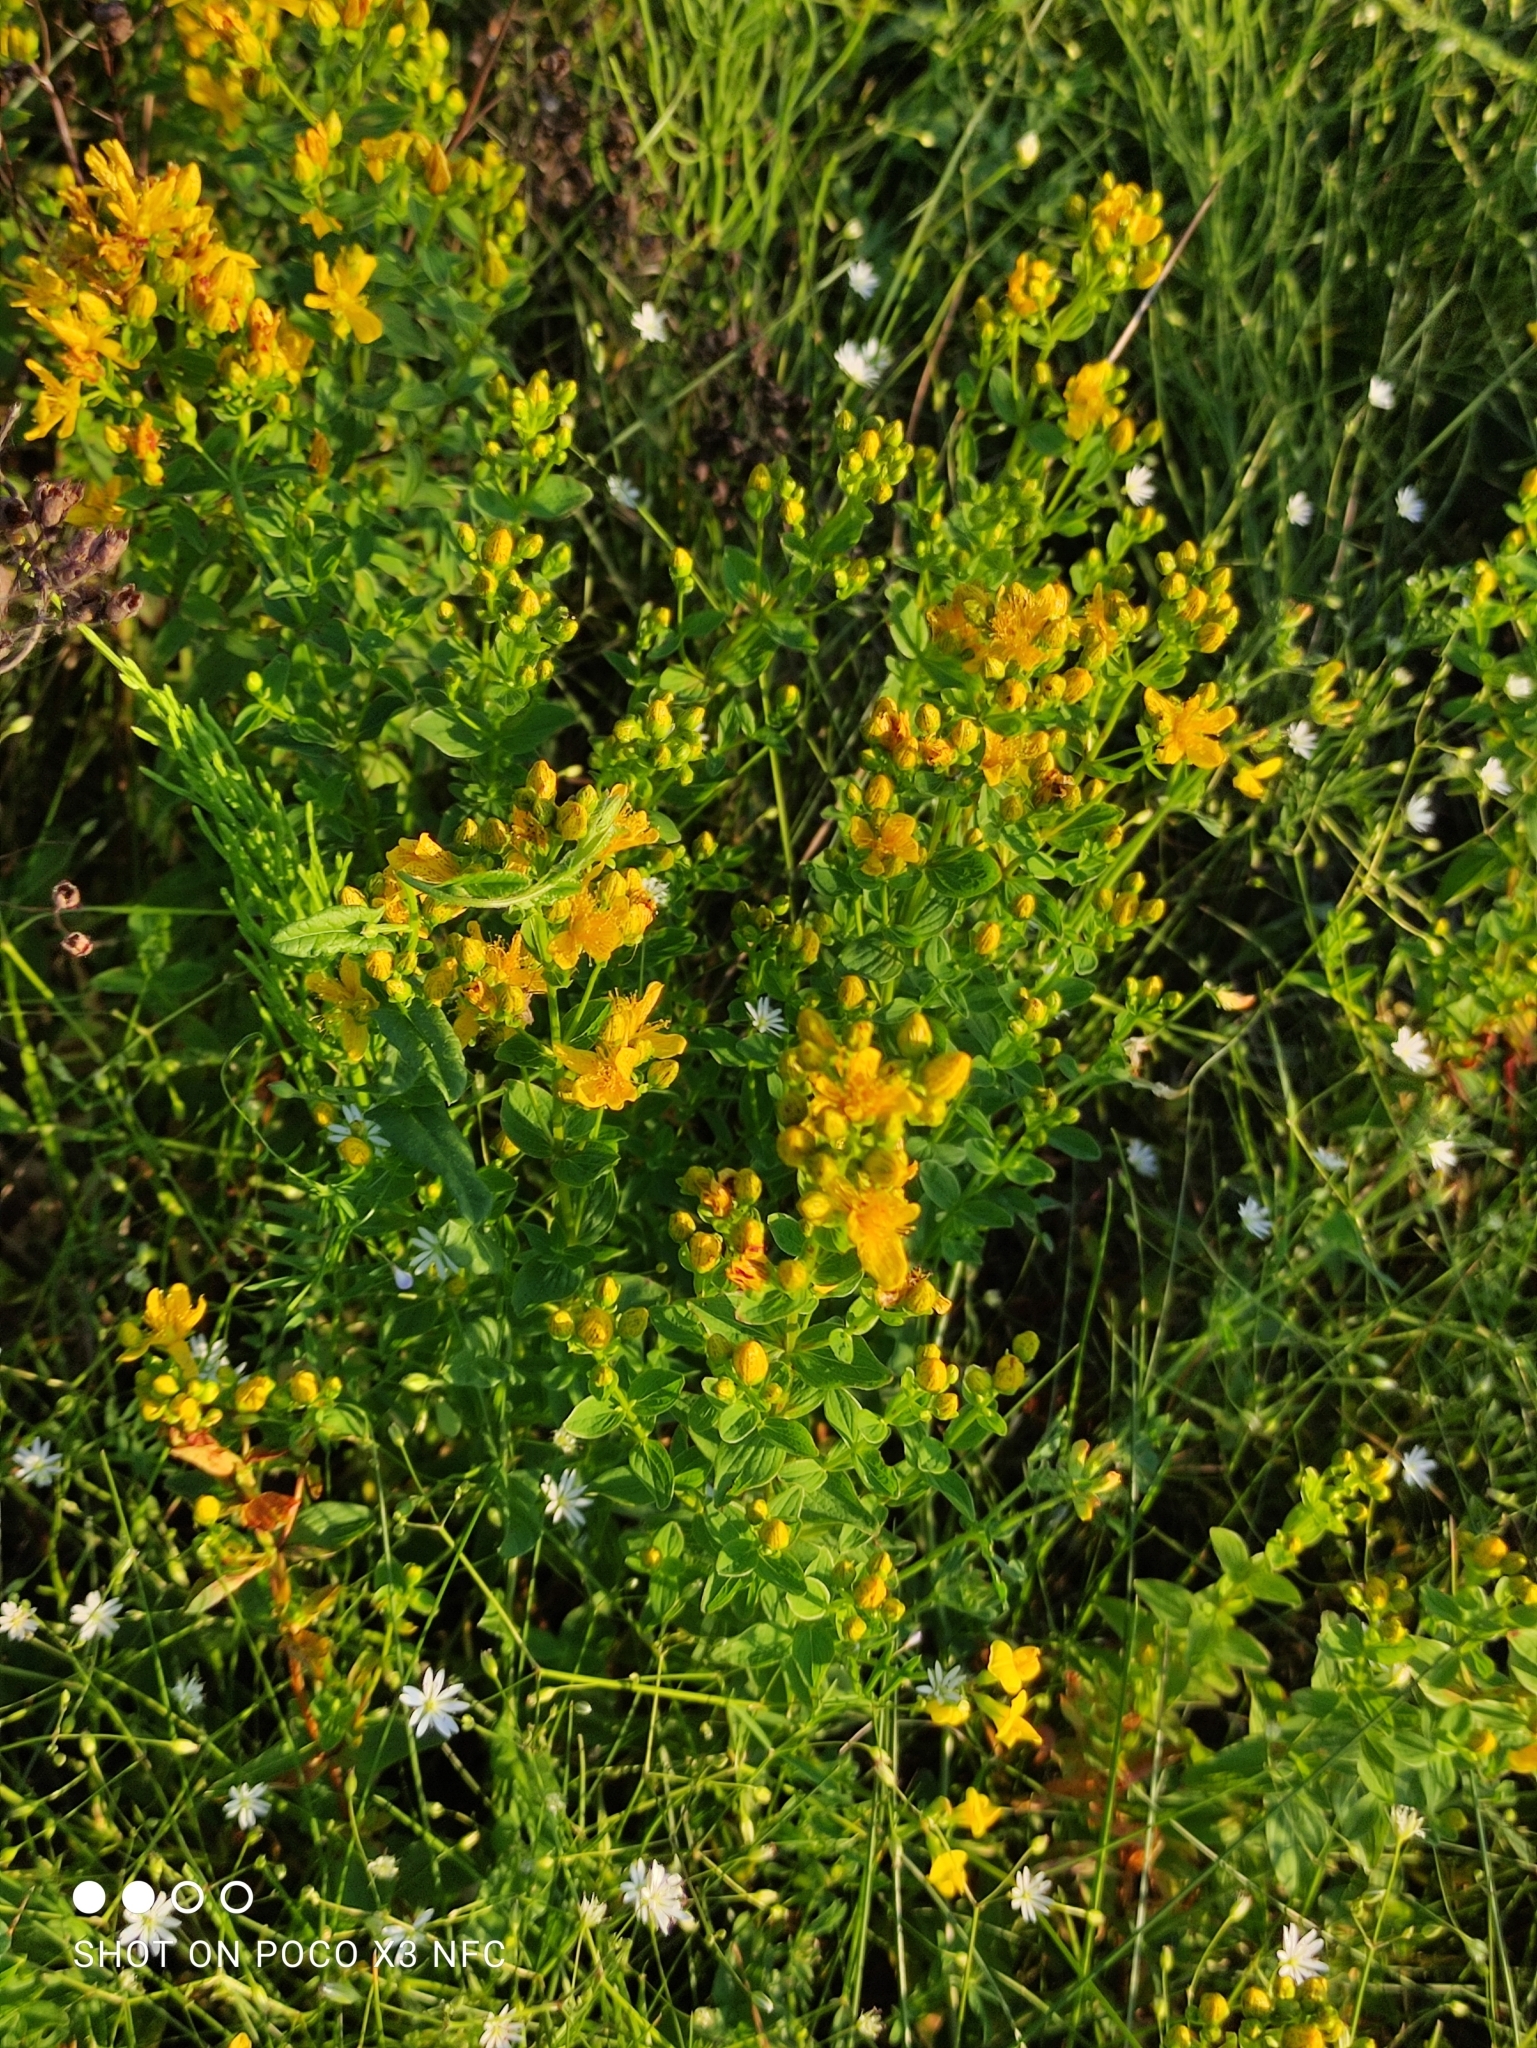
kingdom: Plantae
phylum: Tracheophyta
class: Magnoliopsida
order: Malpighiales
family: Hypericaceae
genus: Hypericum
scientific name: Hypericum maculatum
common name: Imperforate st. john's-wort
